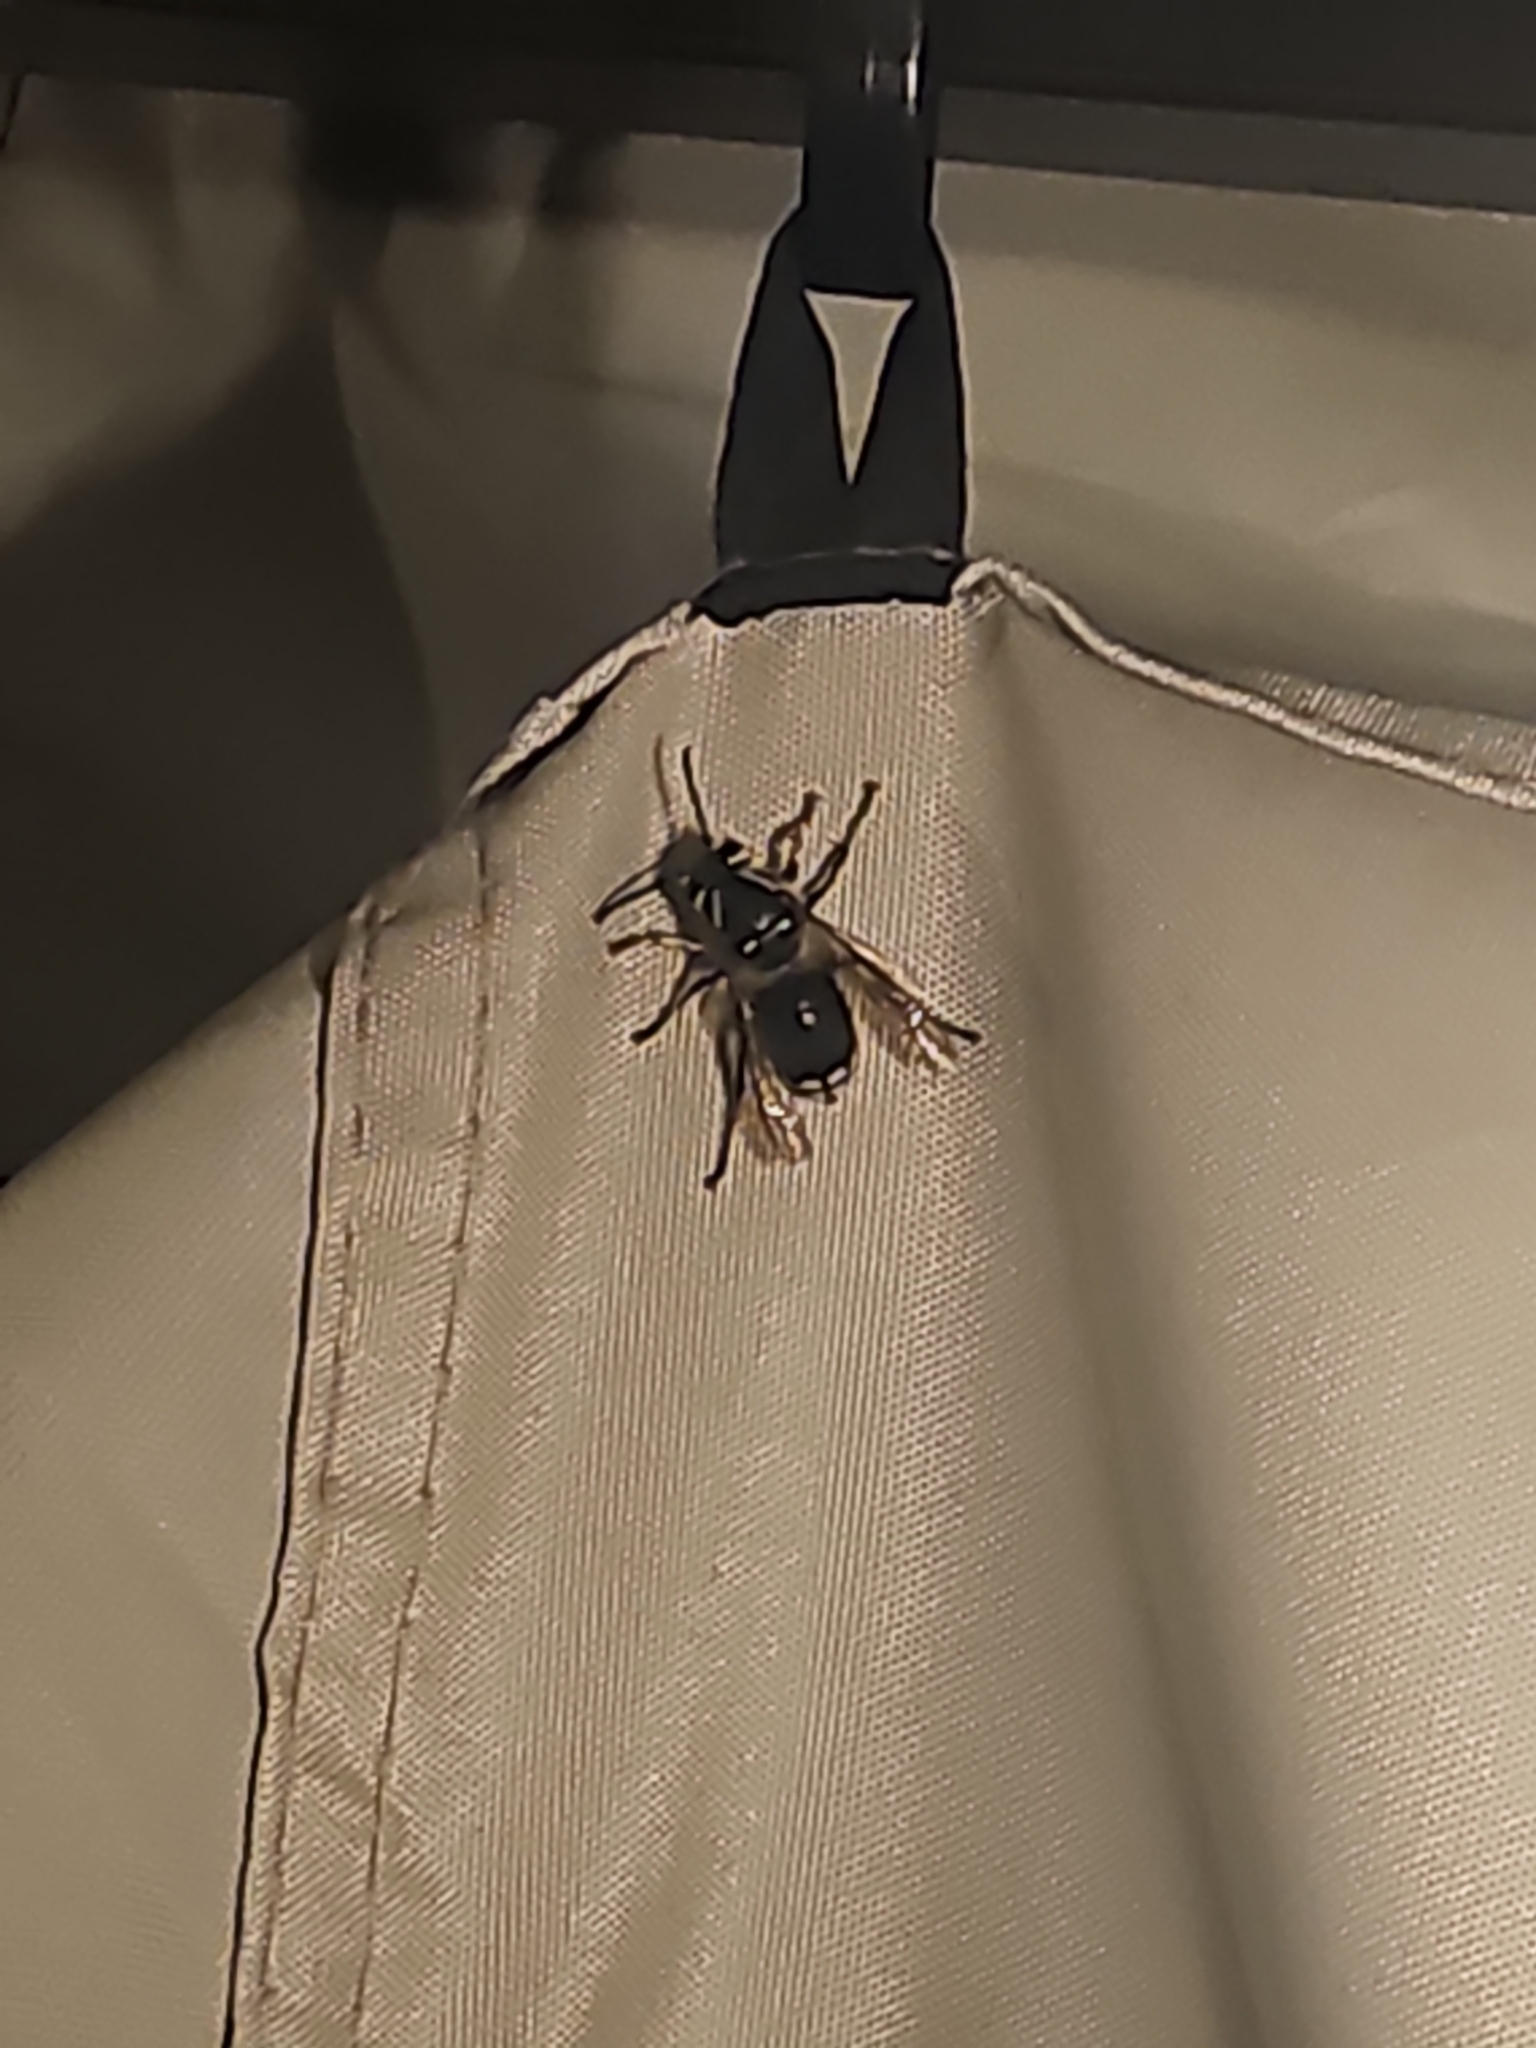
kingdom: Animalia
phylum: Arthropoda
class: Insecta
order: Hymenoptera
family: Vespidae
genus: Dolichovespula
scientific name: Dolichovespula maculata
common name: Bald-faced hornet
